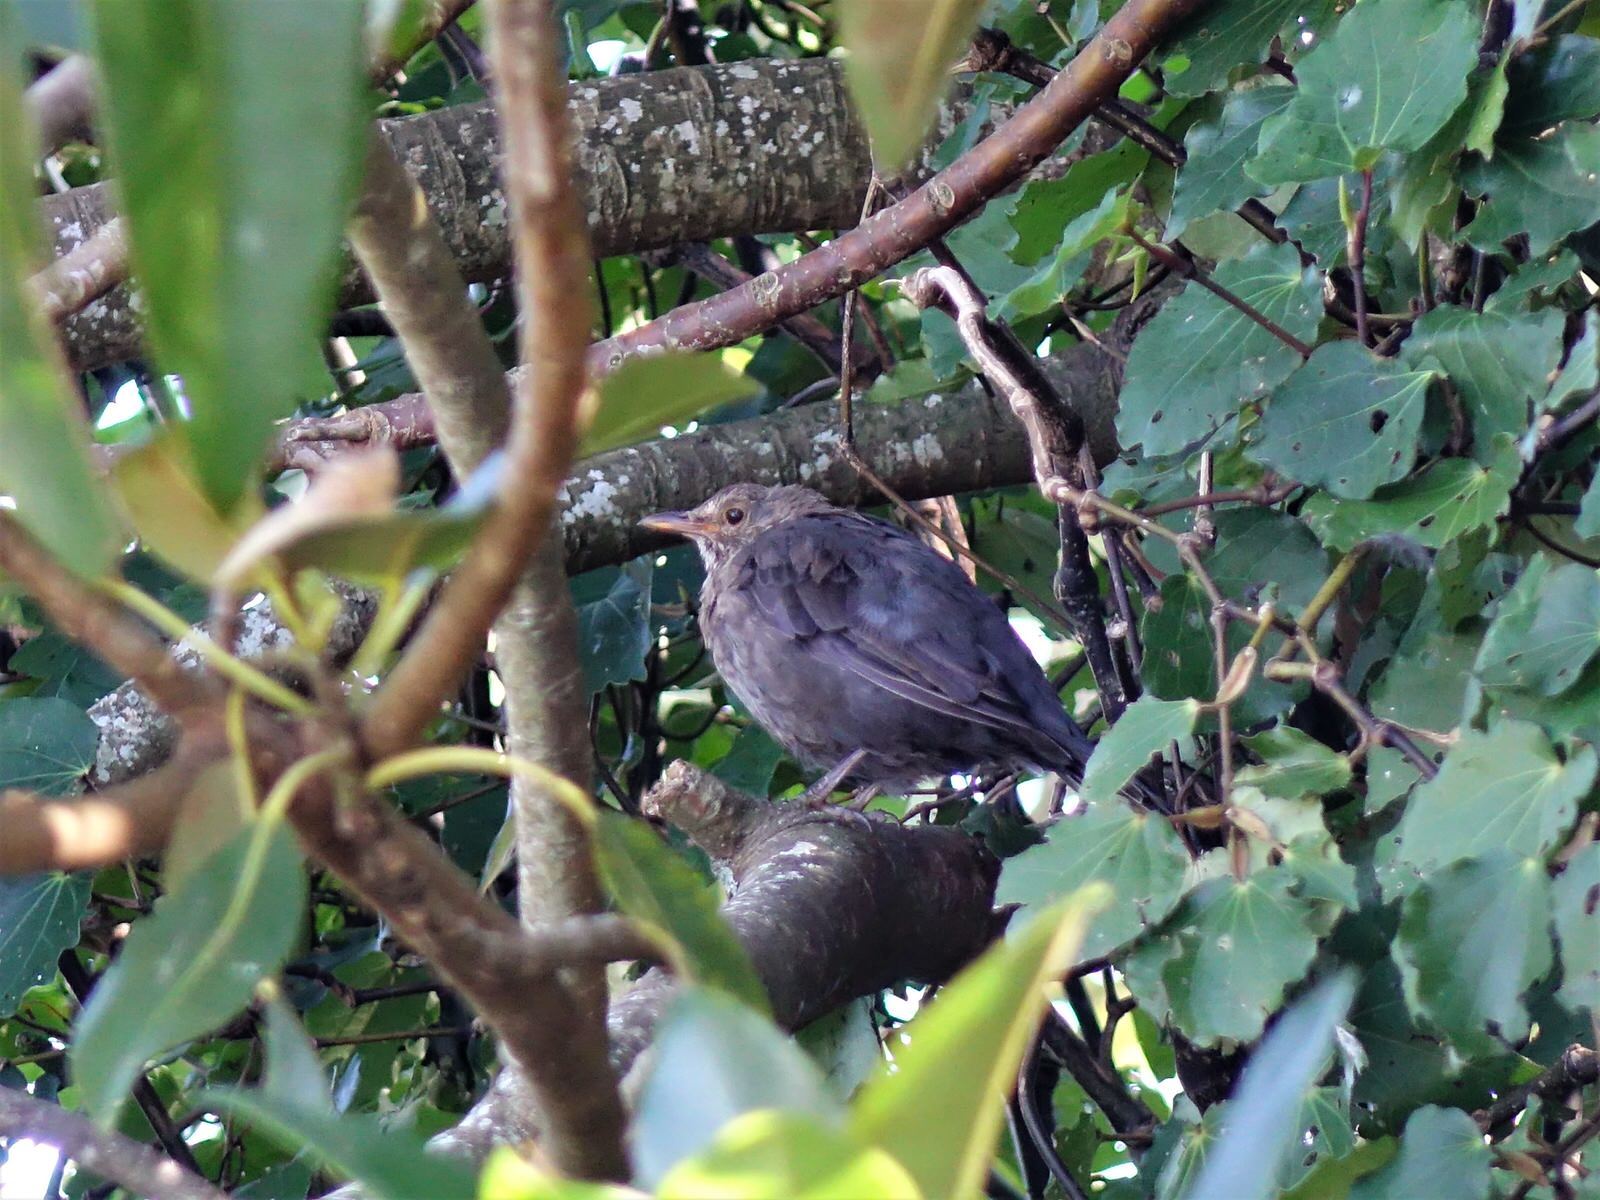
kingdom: Animalia
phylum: Chordata
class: Aves
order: Passeriformes
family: Turdidae
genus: Turdus
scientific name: Turdus merula
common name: Common blackbird
